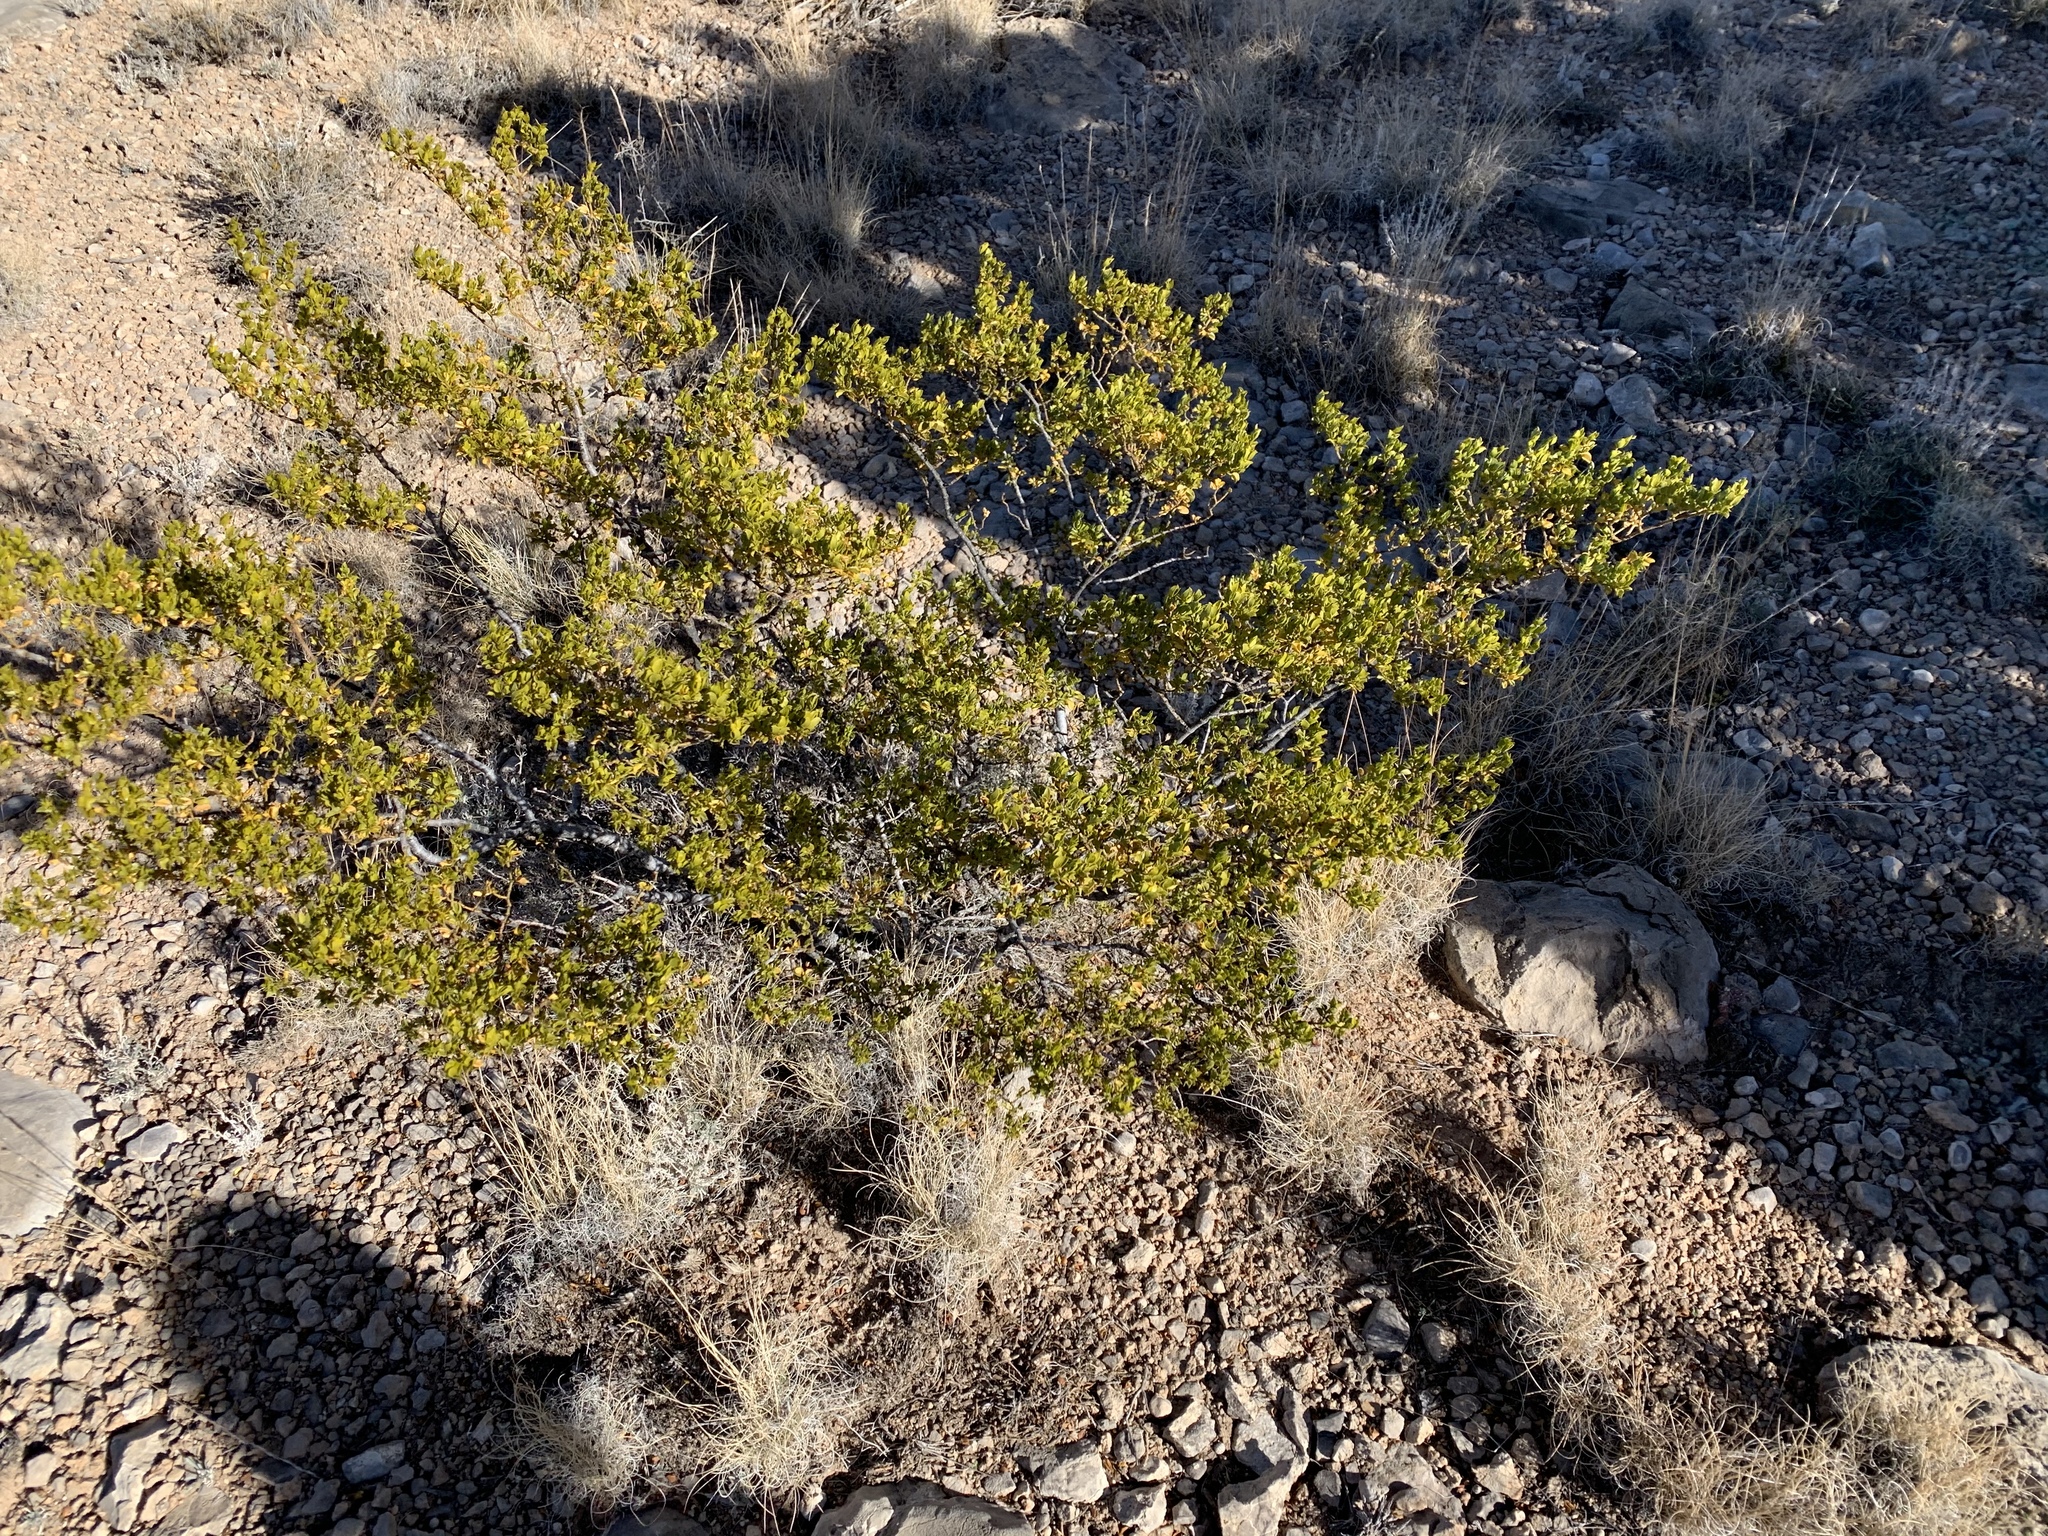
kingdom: Plantae
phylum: Tracheophyta
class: Magnoliopsida
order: Zygophyllales
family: Zygophyllaceae
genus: Larrea
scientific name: Larrea tridentata
